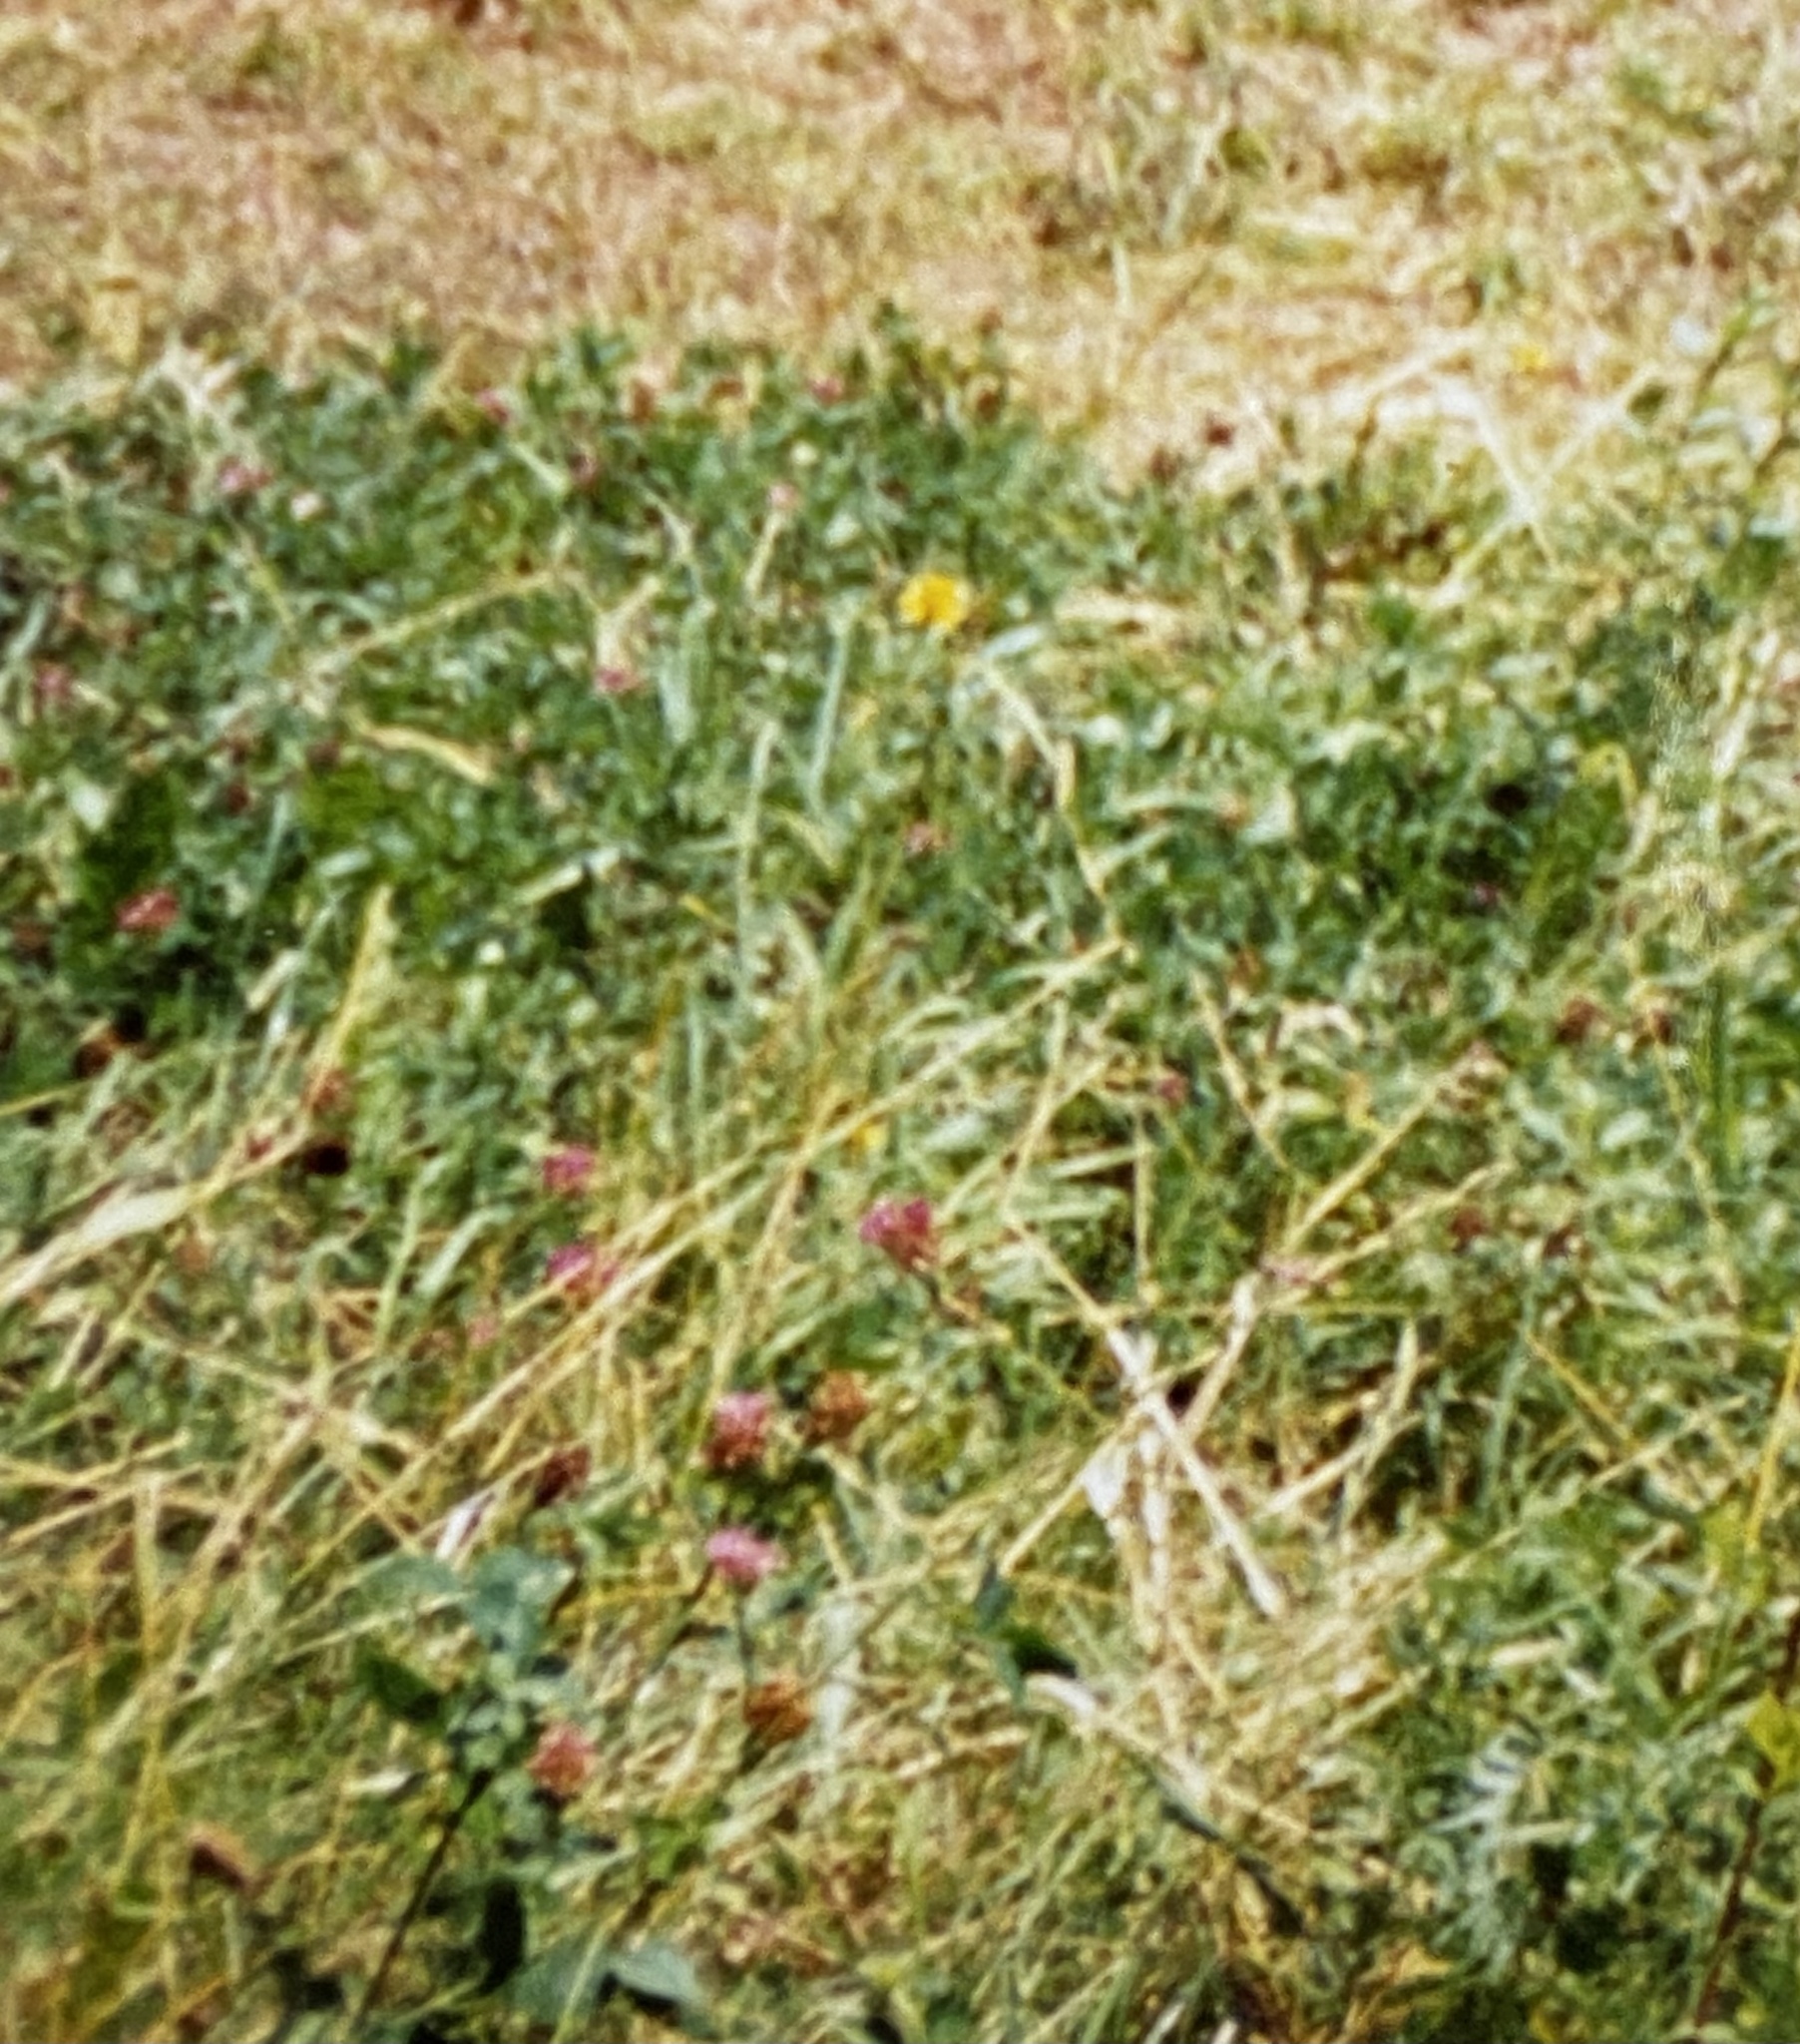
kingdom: Plantae
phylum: Tracheophyta
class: Magnoliopsida
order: Fabales
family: Fabaceae
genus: Trifolium
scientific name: Trifolium pratense
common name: Red clover
